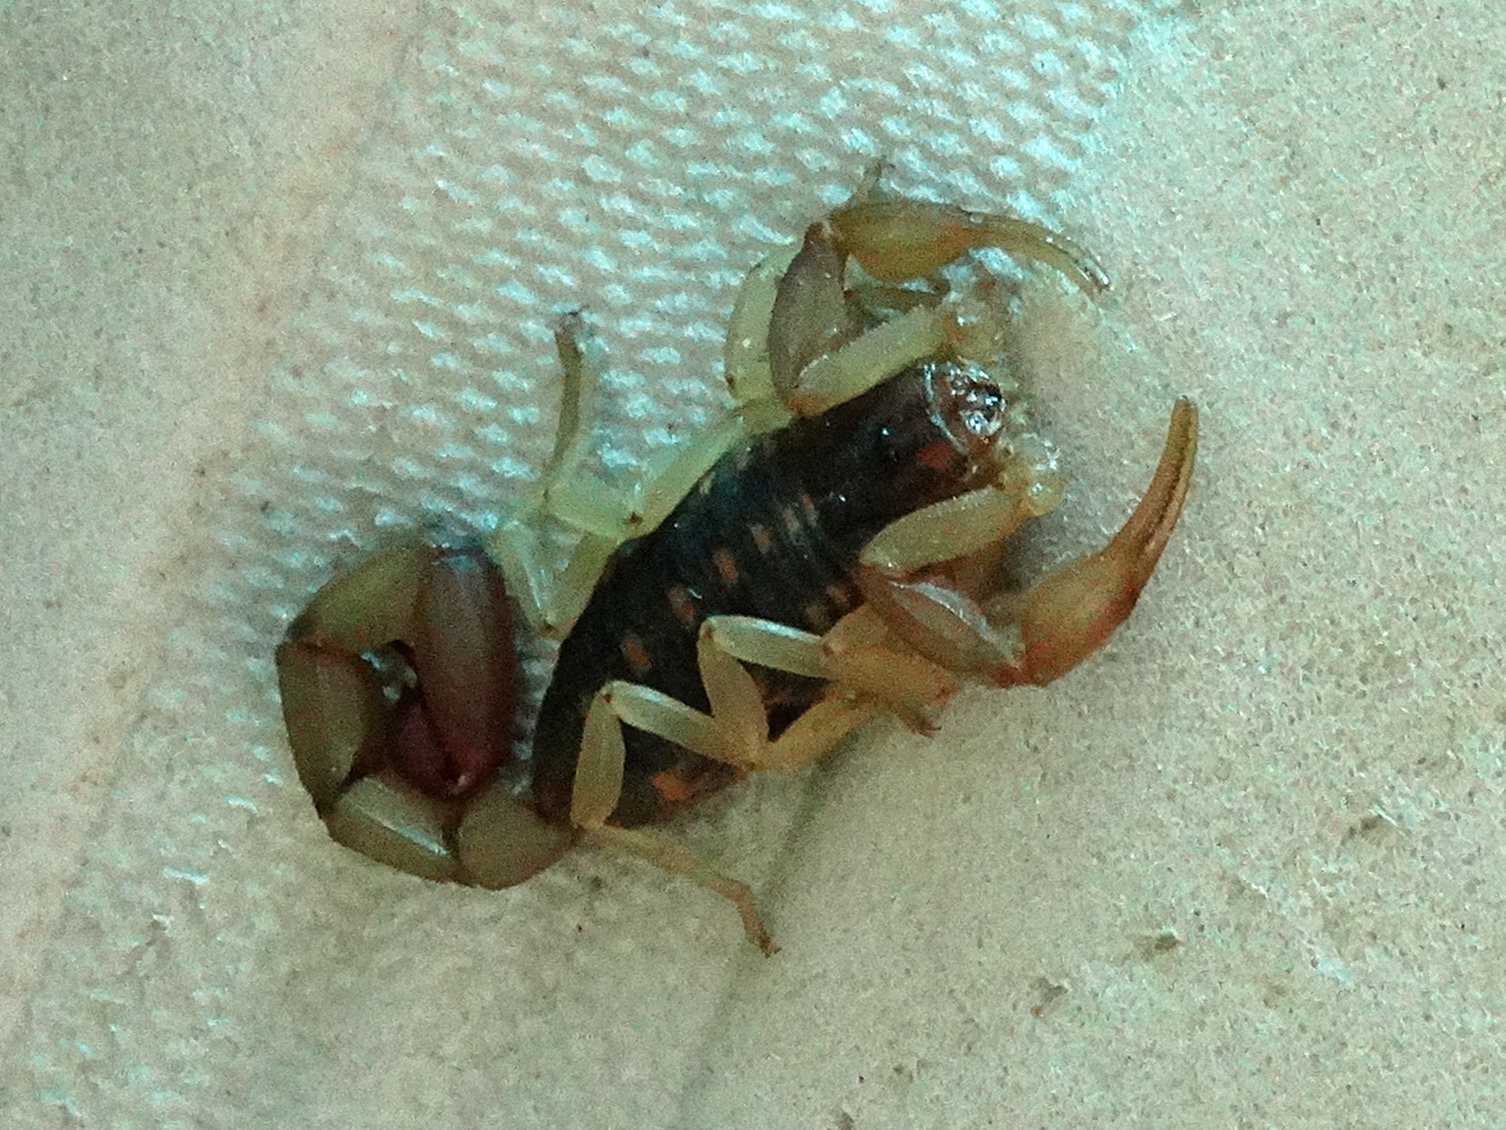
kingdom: Animalia
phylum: Arthropoda
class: Arachnida
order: Scorpiones
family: Buthidae
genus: Centruroides
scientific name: Centruroides baldazoi
